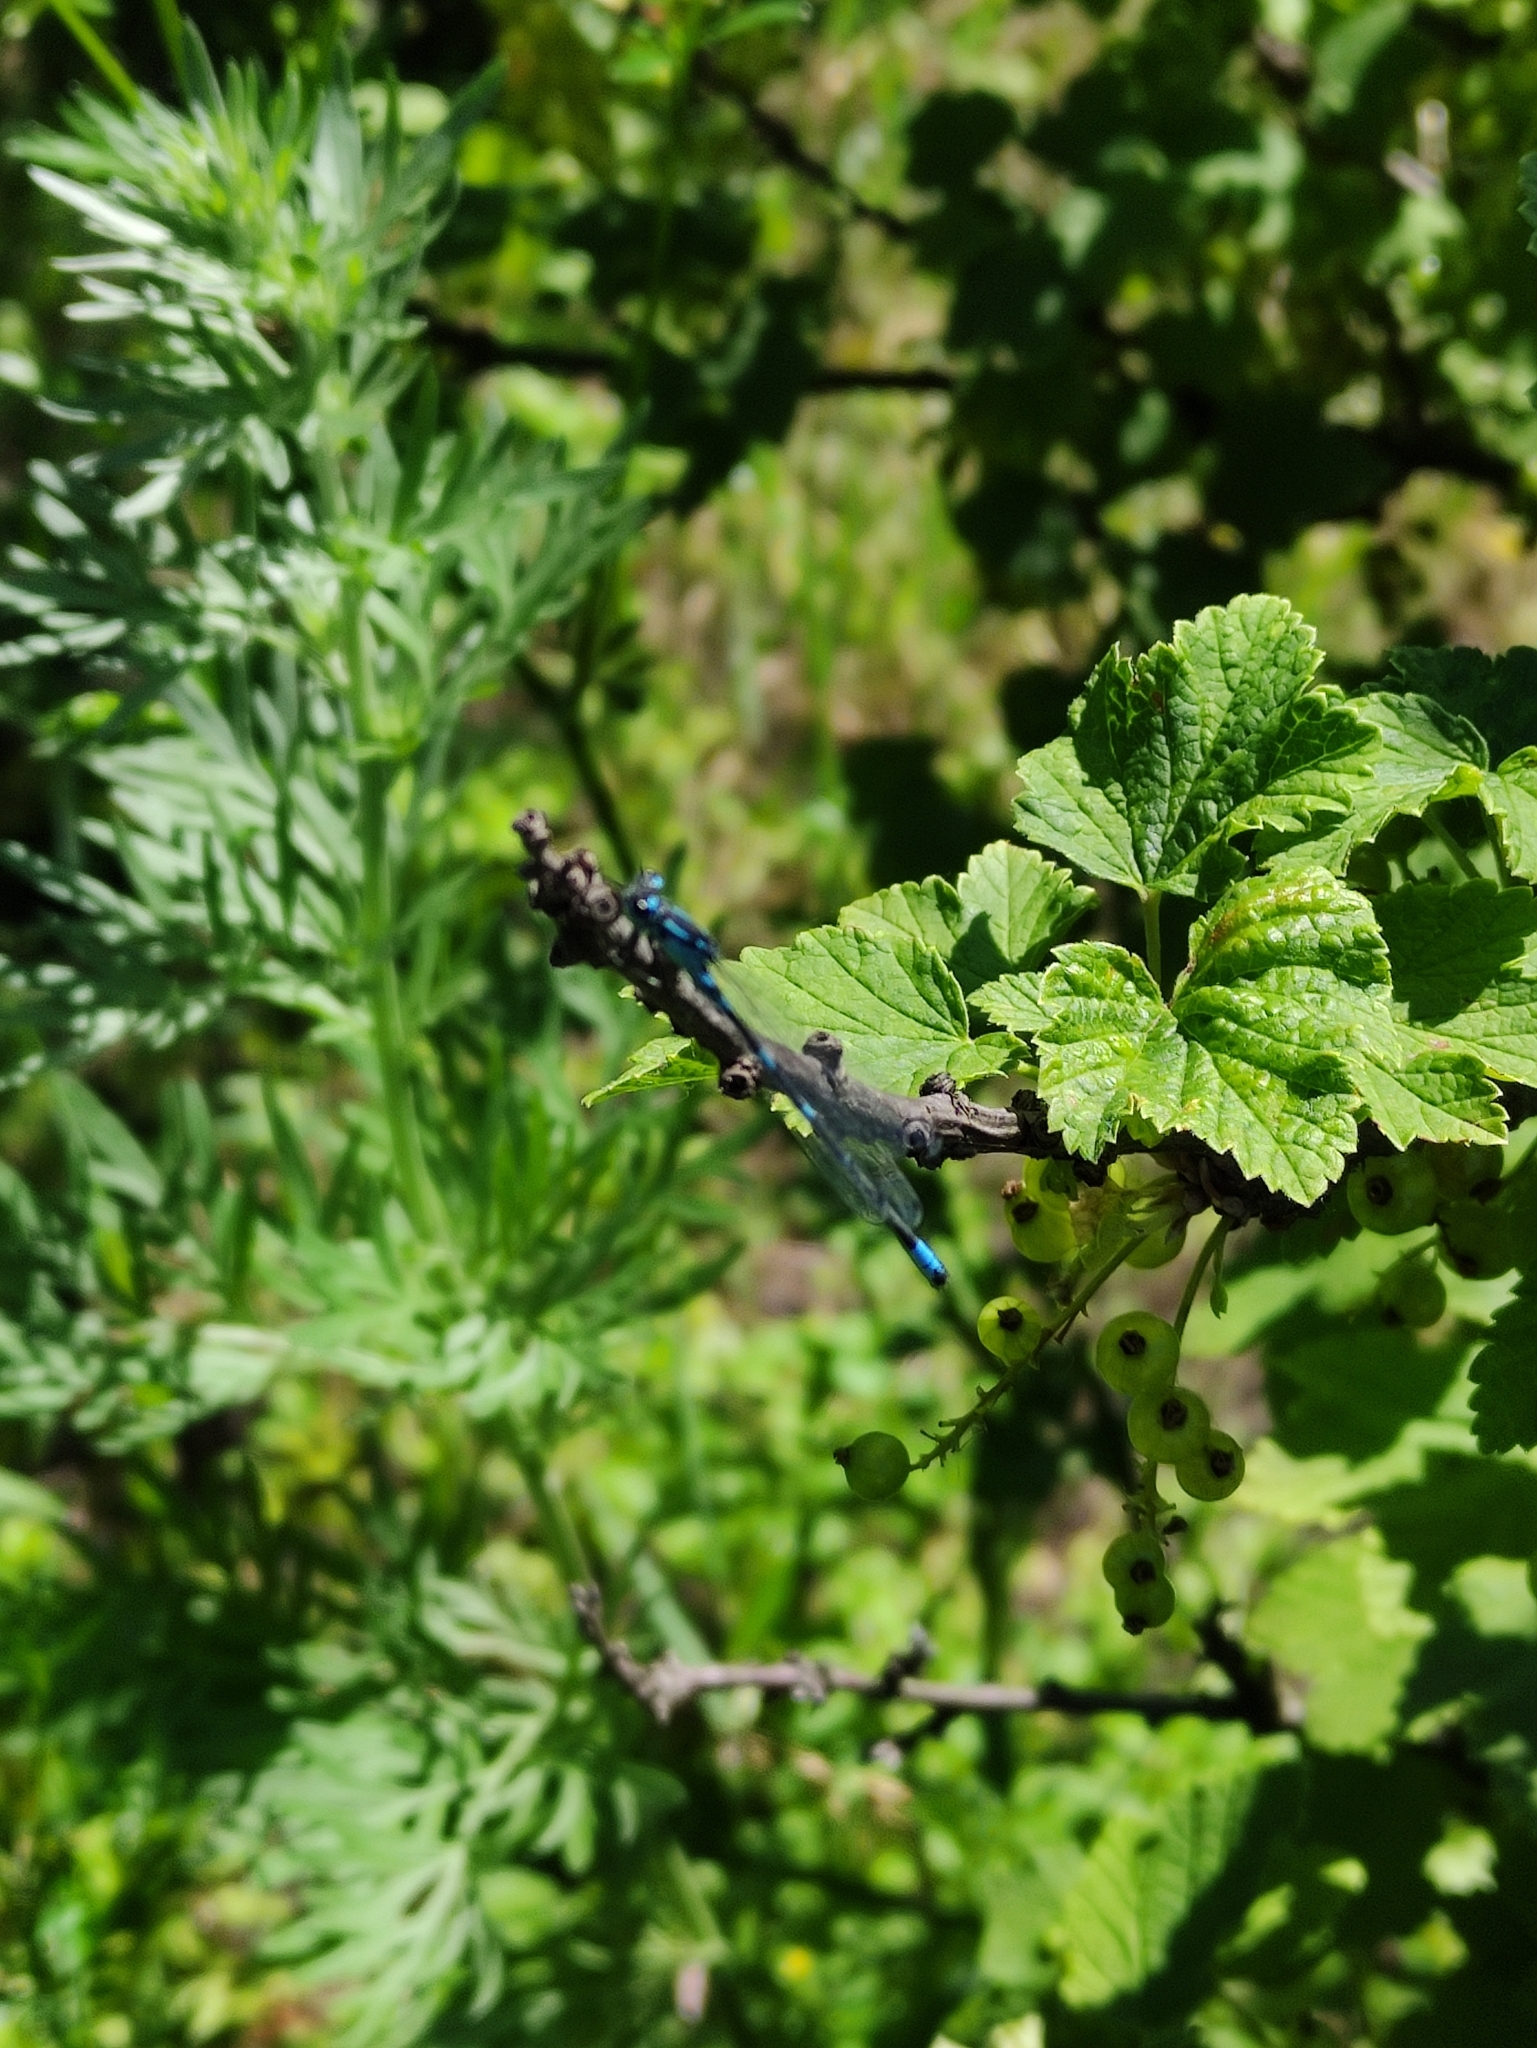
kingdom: Animalia
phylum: Arthropoda
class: Insecta
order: Odonata
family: Coenagrionidae
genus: Coenagrion
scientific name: Coenagrion pulchellum
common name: Variable bluet
